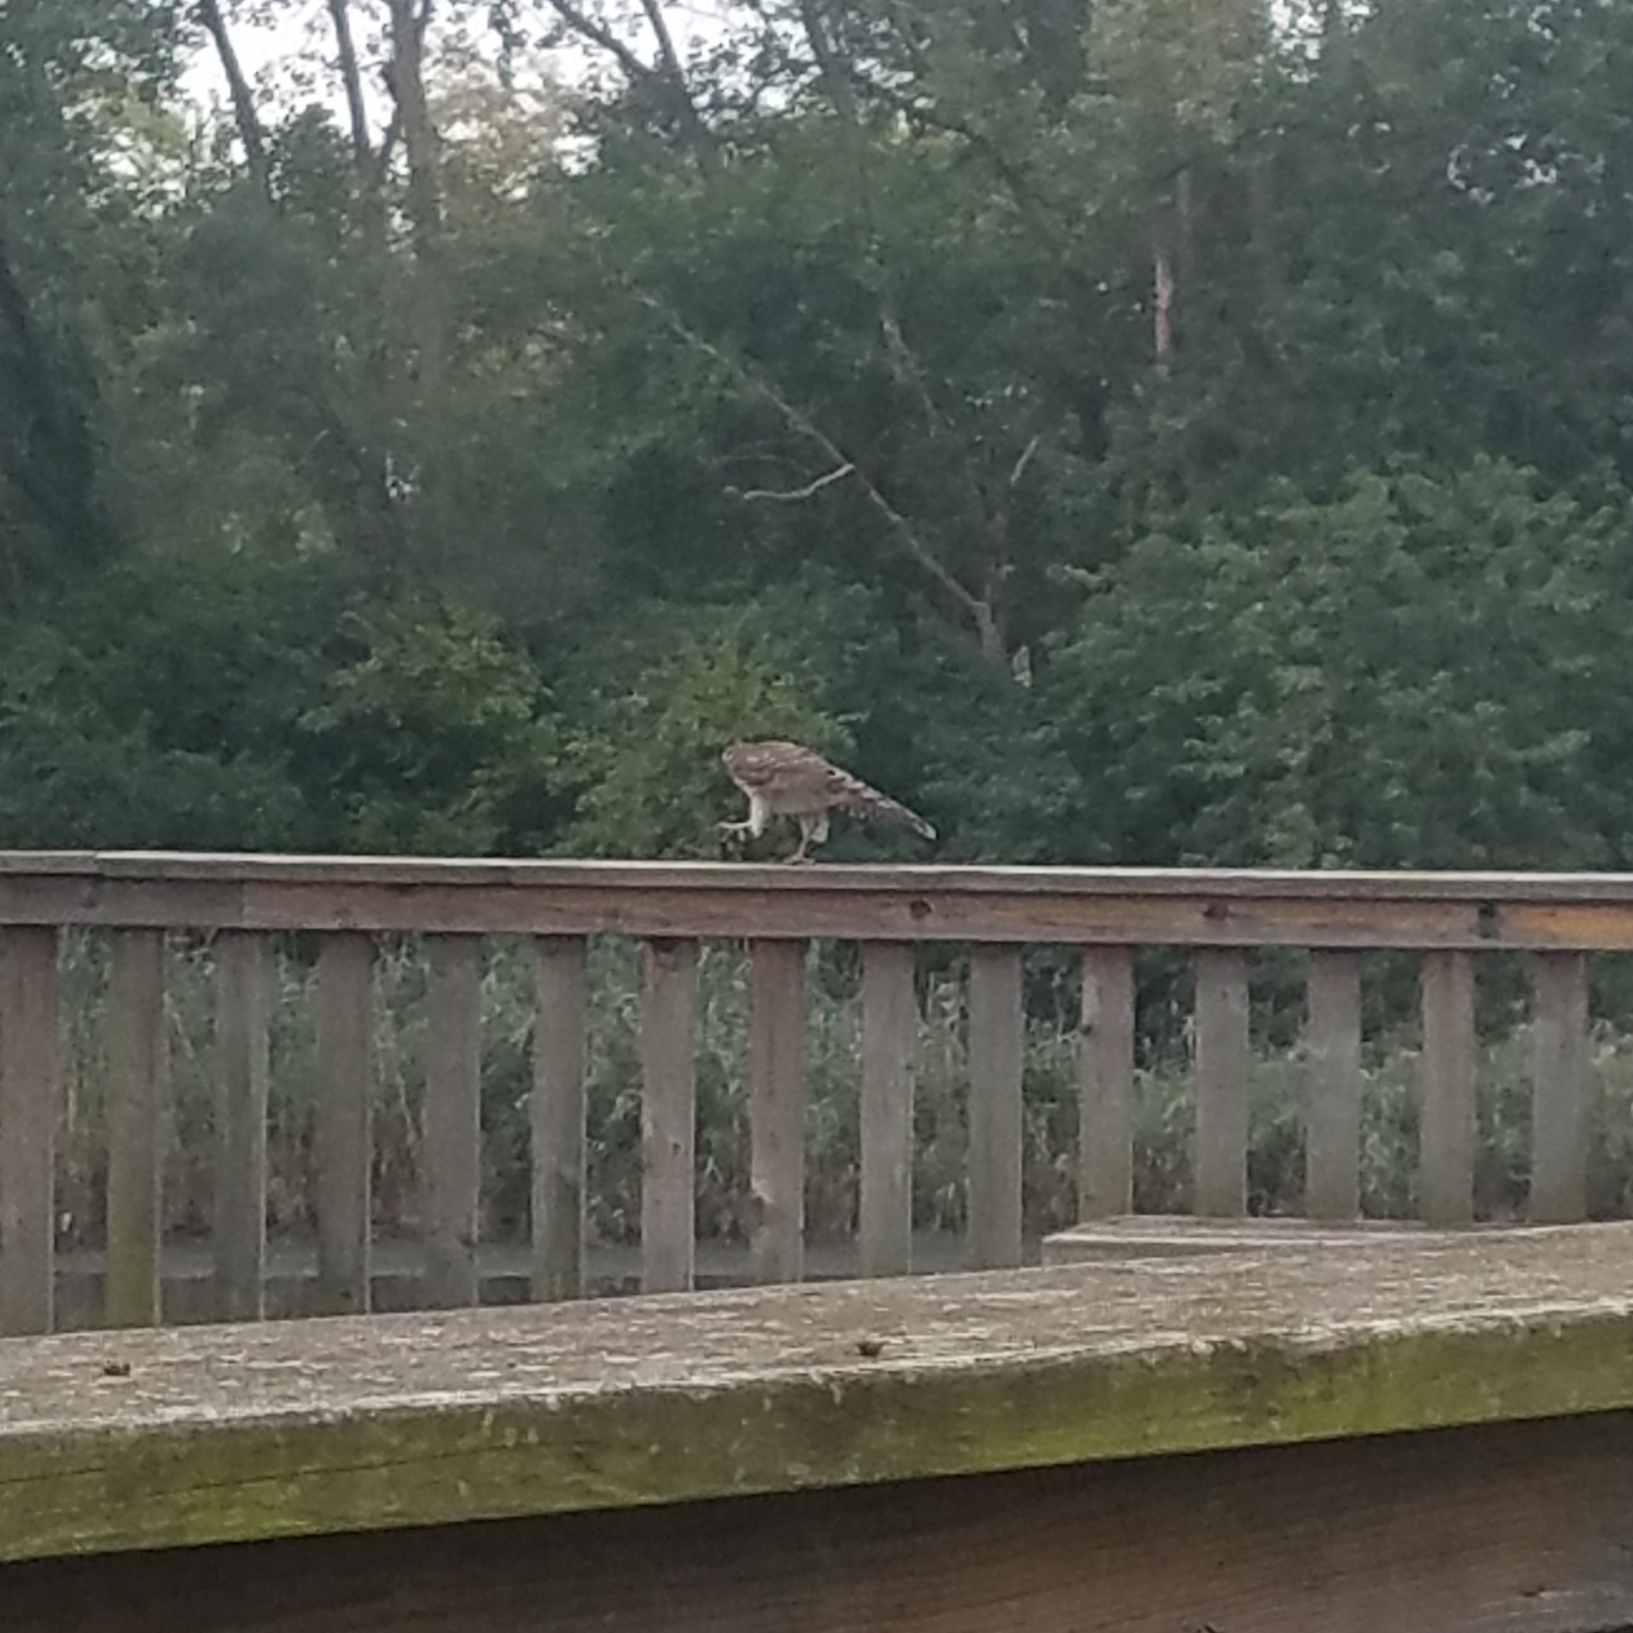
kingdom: Animalia
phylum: Chordata
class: Aves
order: Accipitriformes
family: Accipitridae
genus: Accipiter
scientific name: Accipiter cooperii
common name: Cooper's hawk
